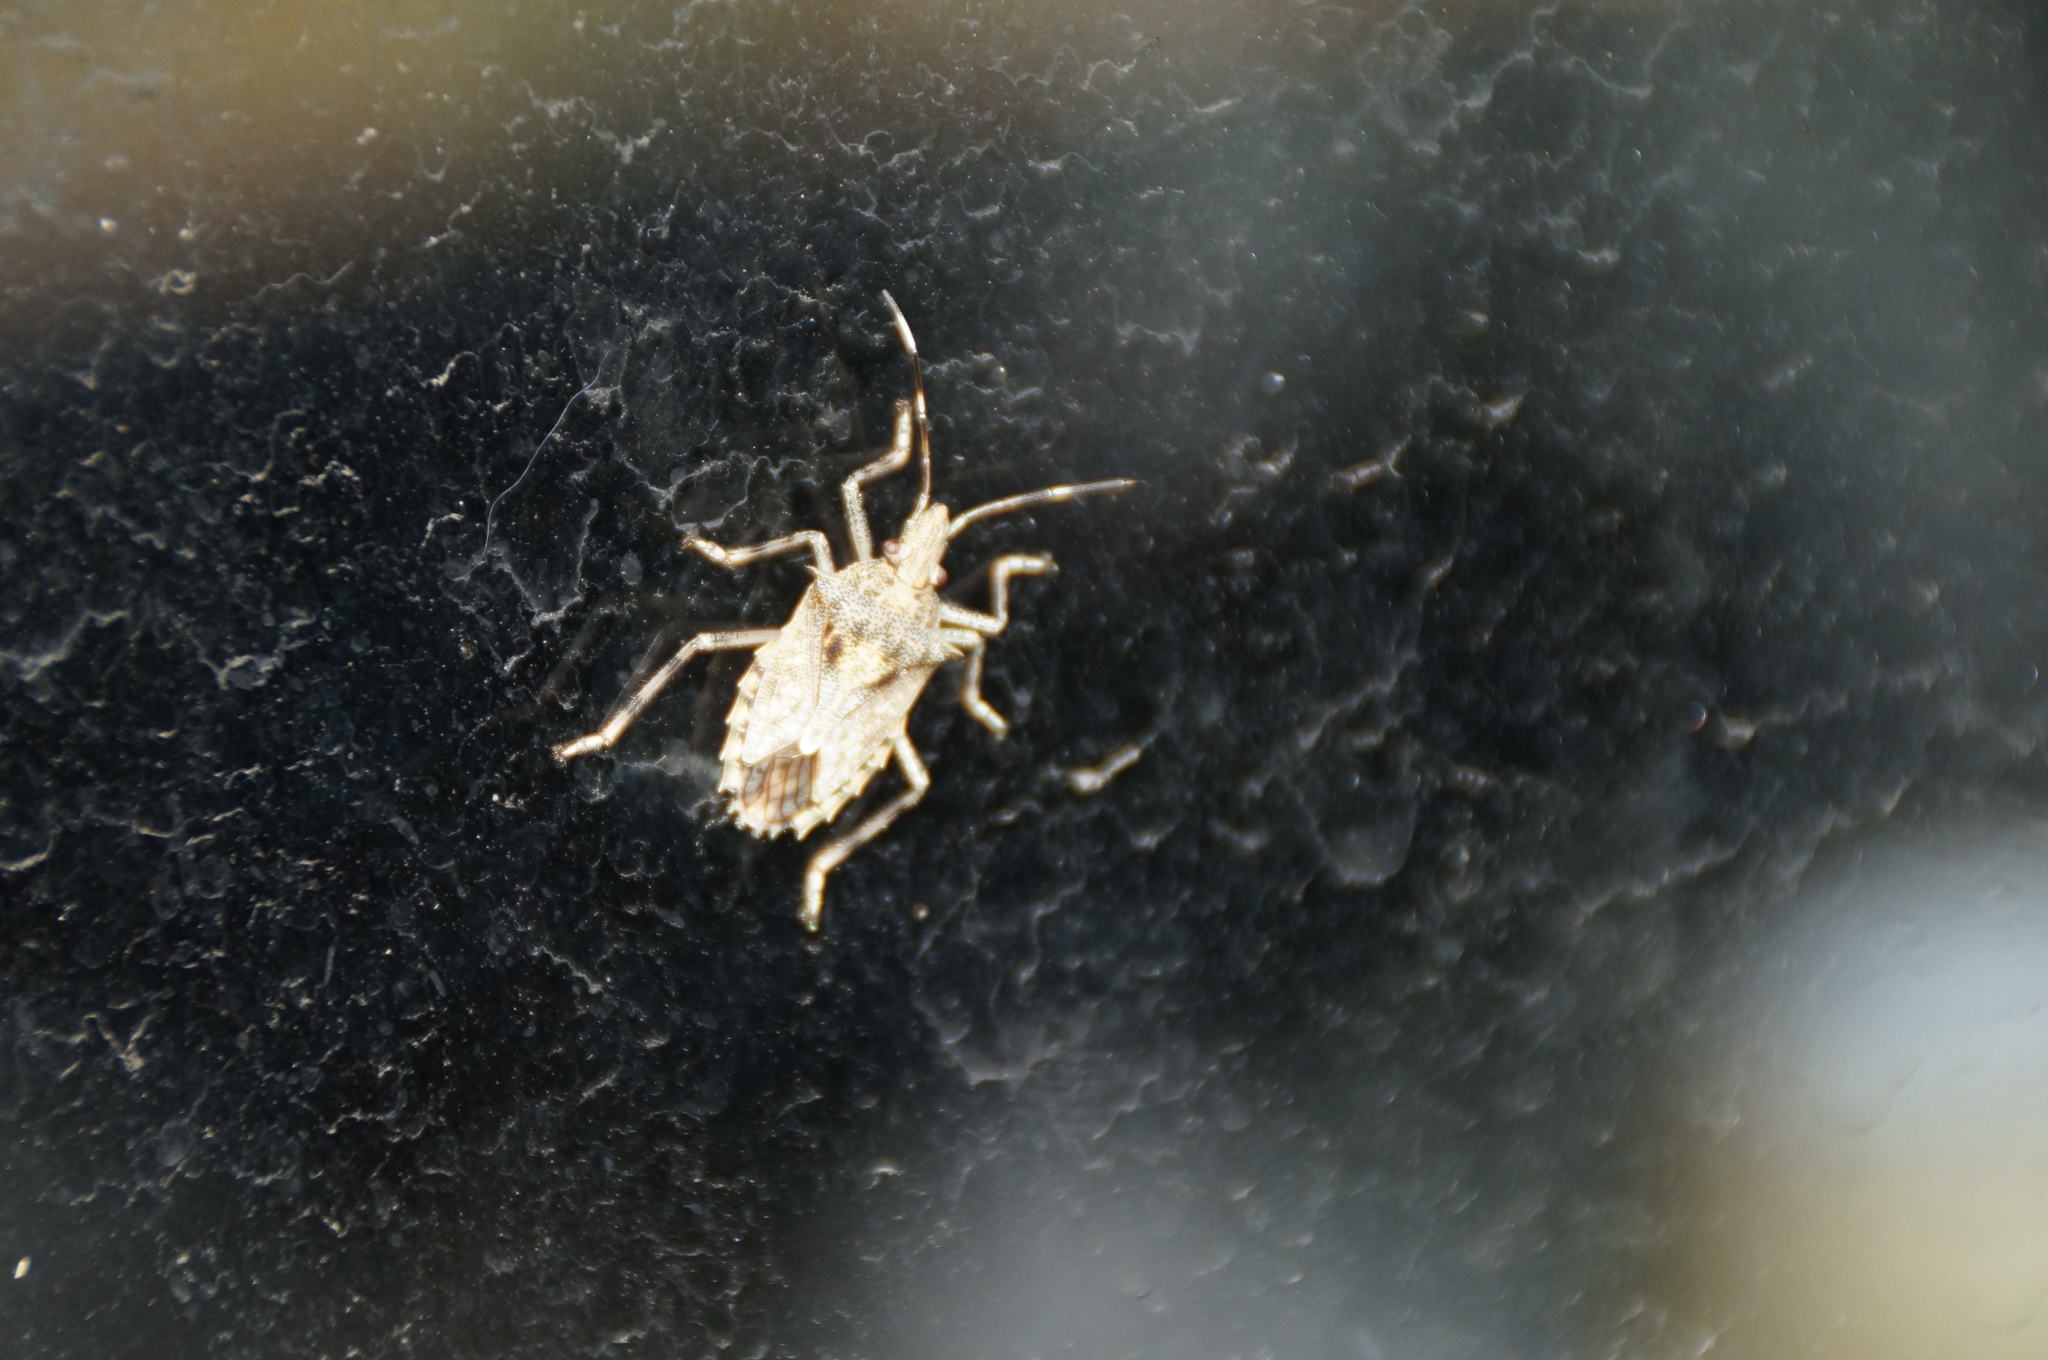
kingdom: Animalia
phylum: Arthropoda
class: Insecta
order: Hemiptera
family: Pentatomidae
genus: Bromocoris
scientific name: Bromocoris
